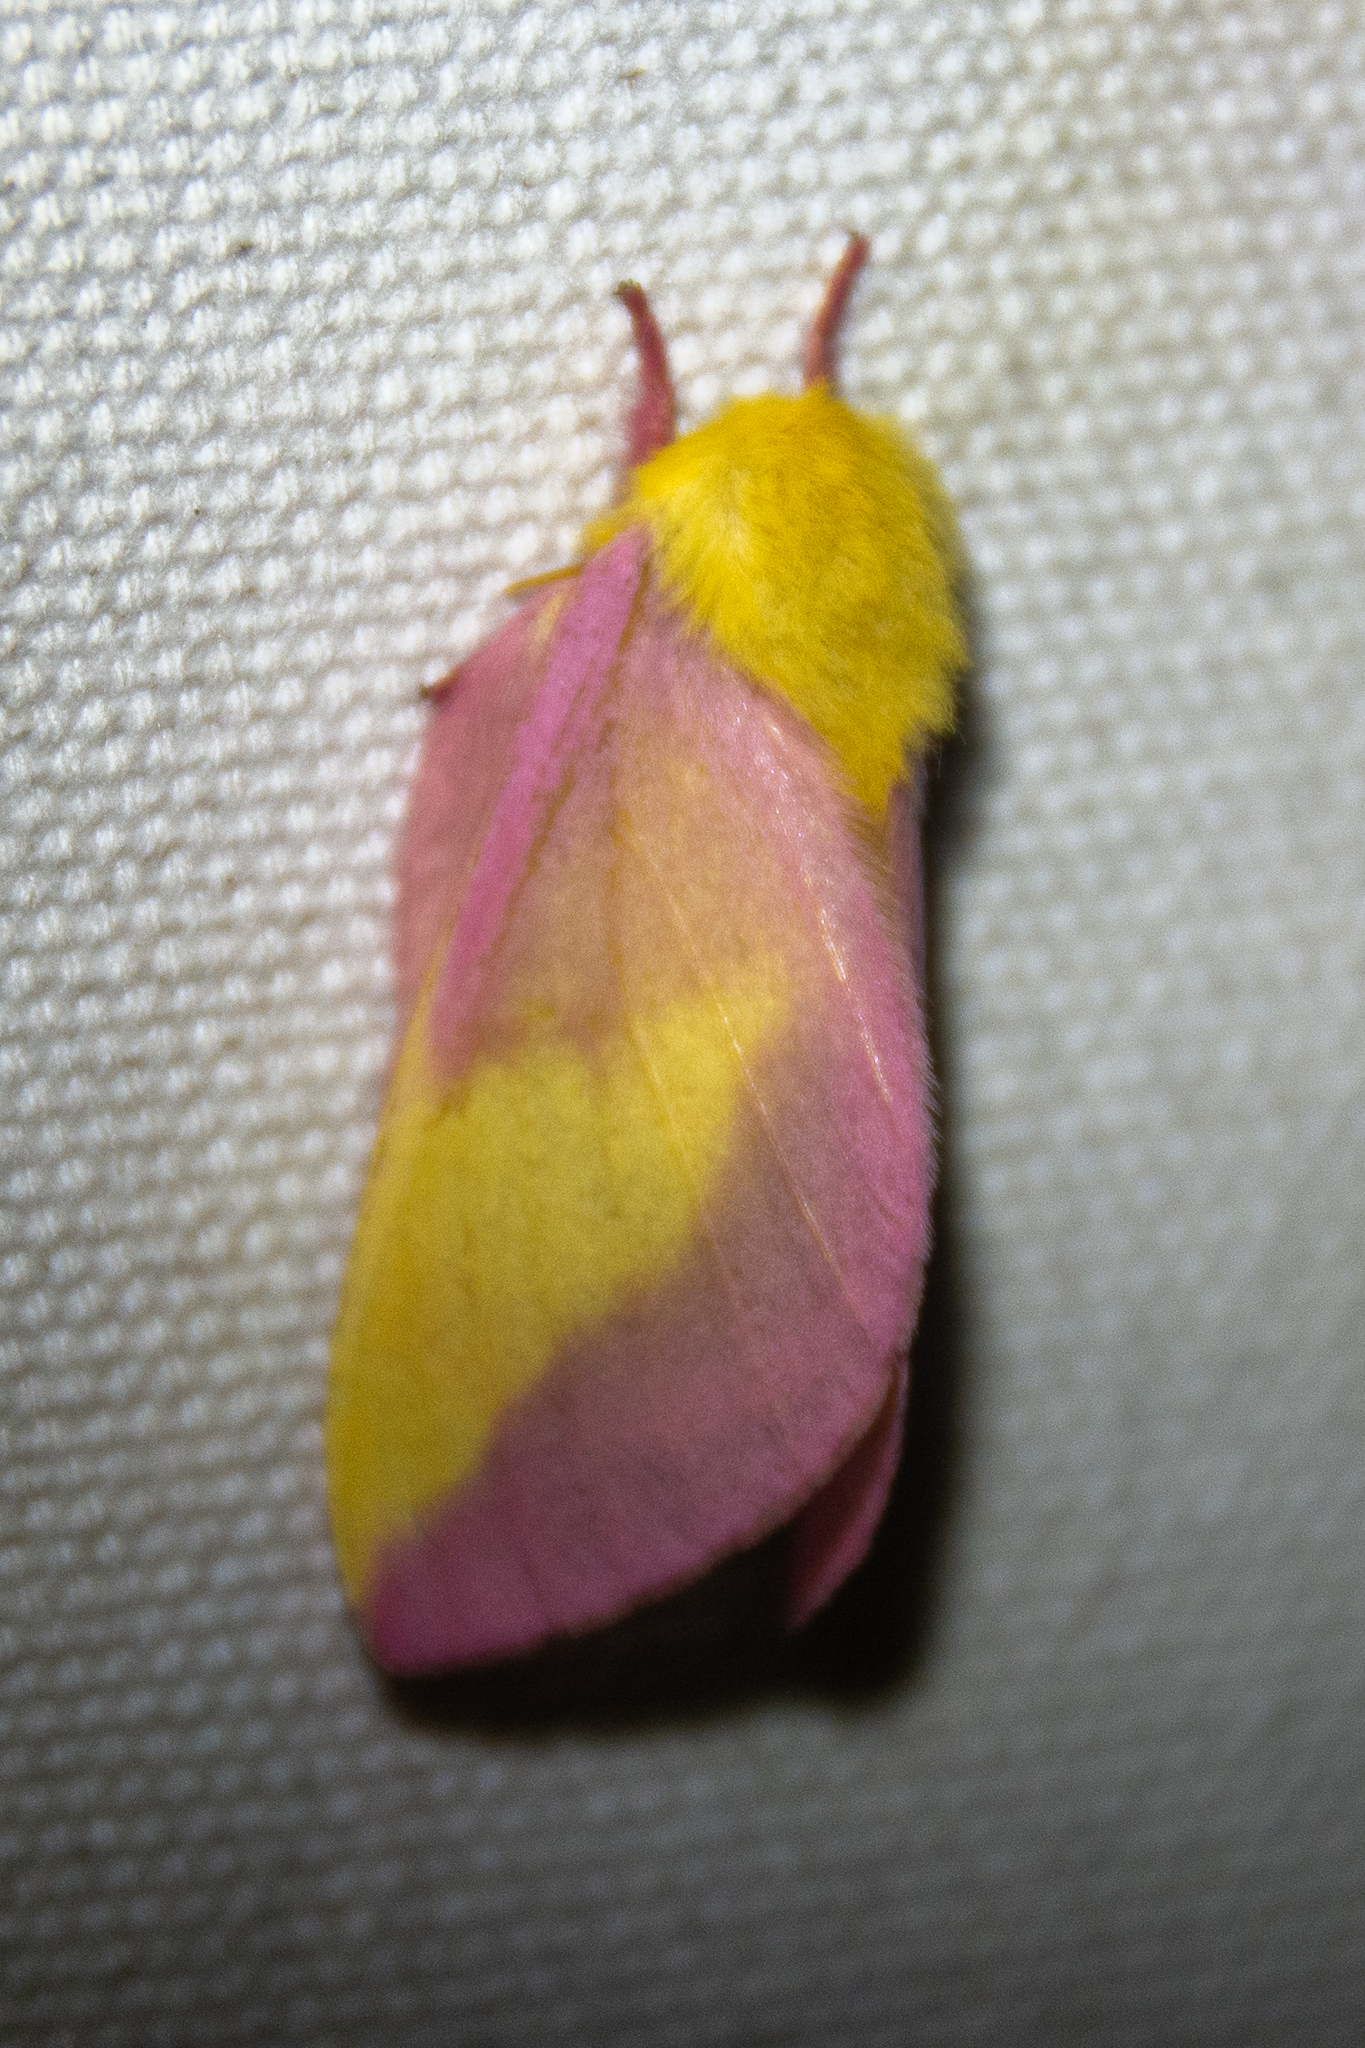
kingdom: Animalia
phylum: Arthropoda
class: Insecta
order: Lepidoptera
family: Saturniidae
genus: Dryocampa
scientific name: Dryocampa rubicunda
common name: Rosy maple moth
